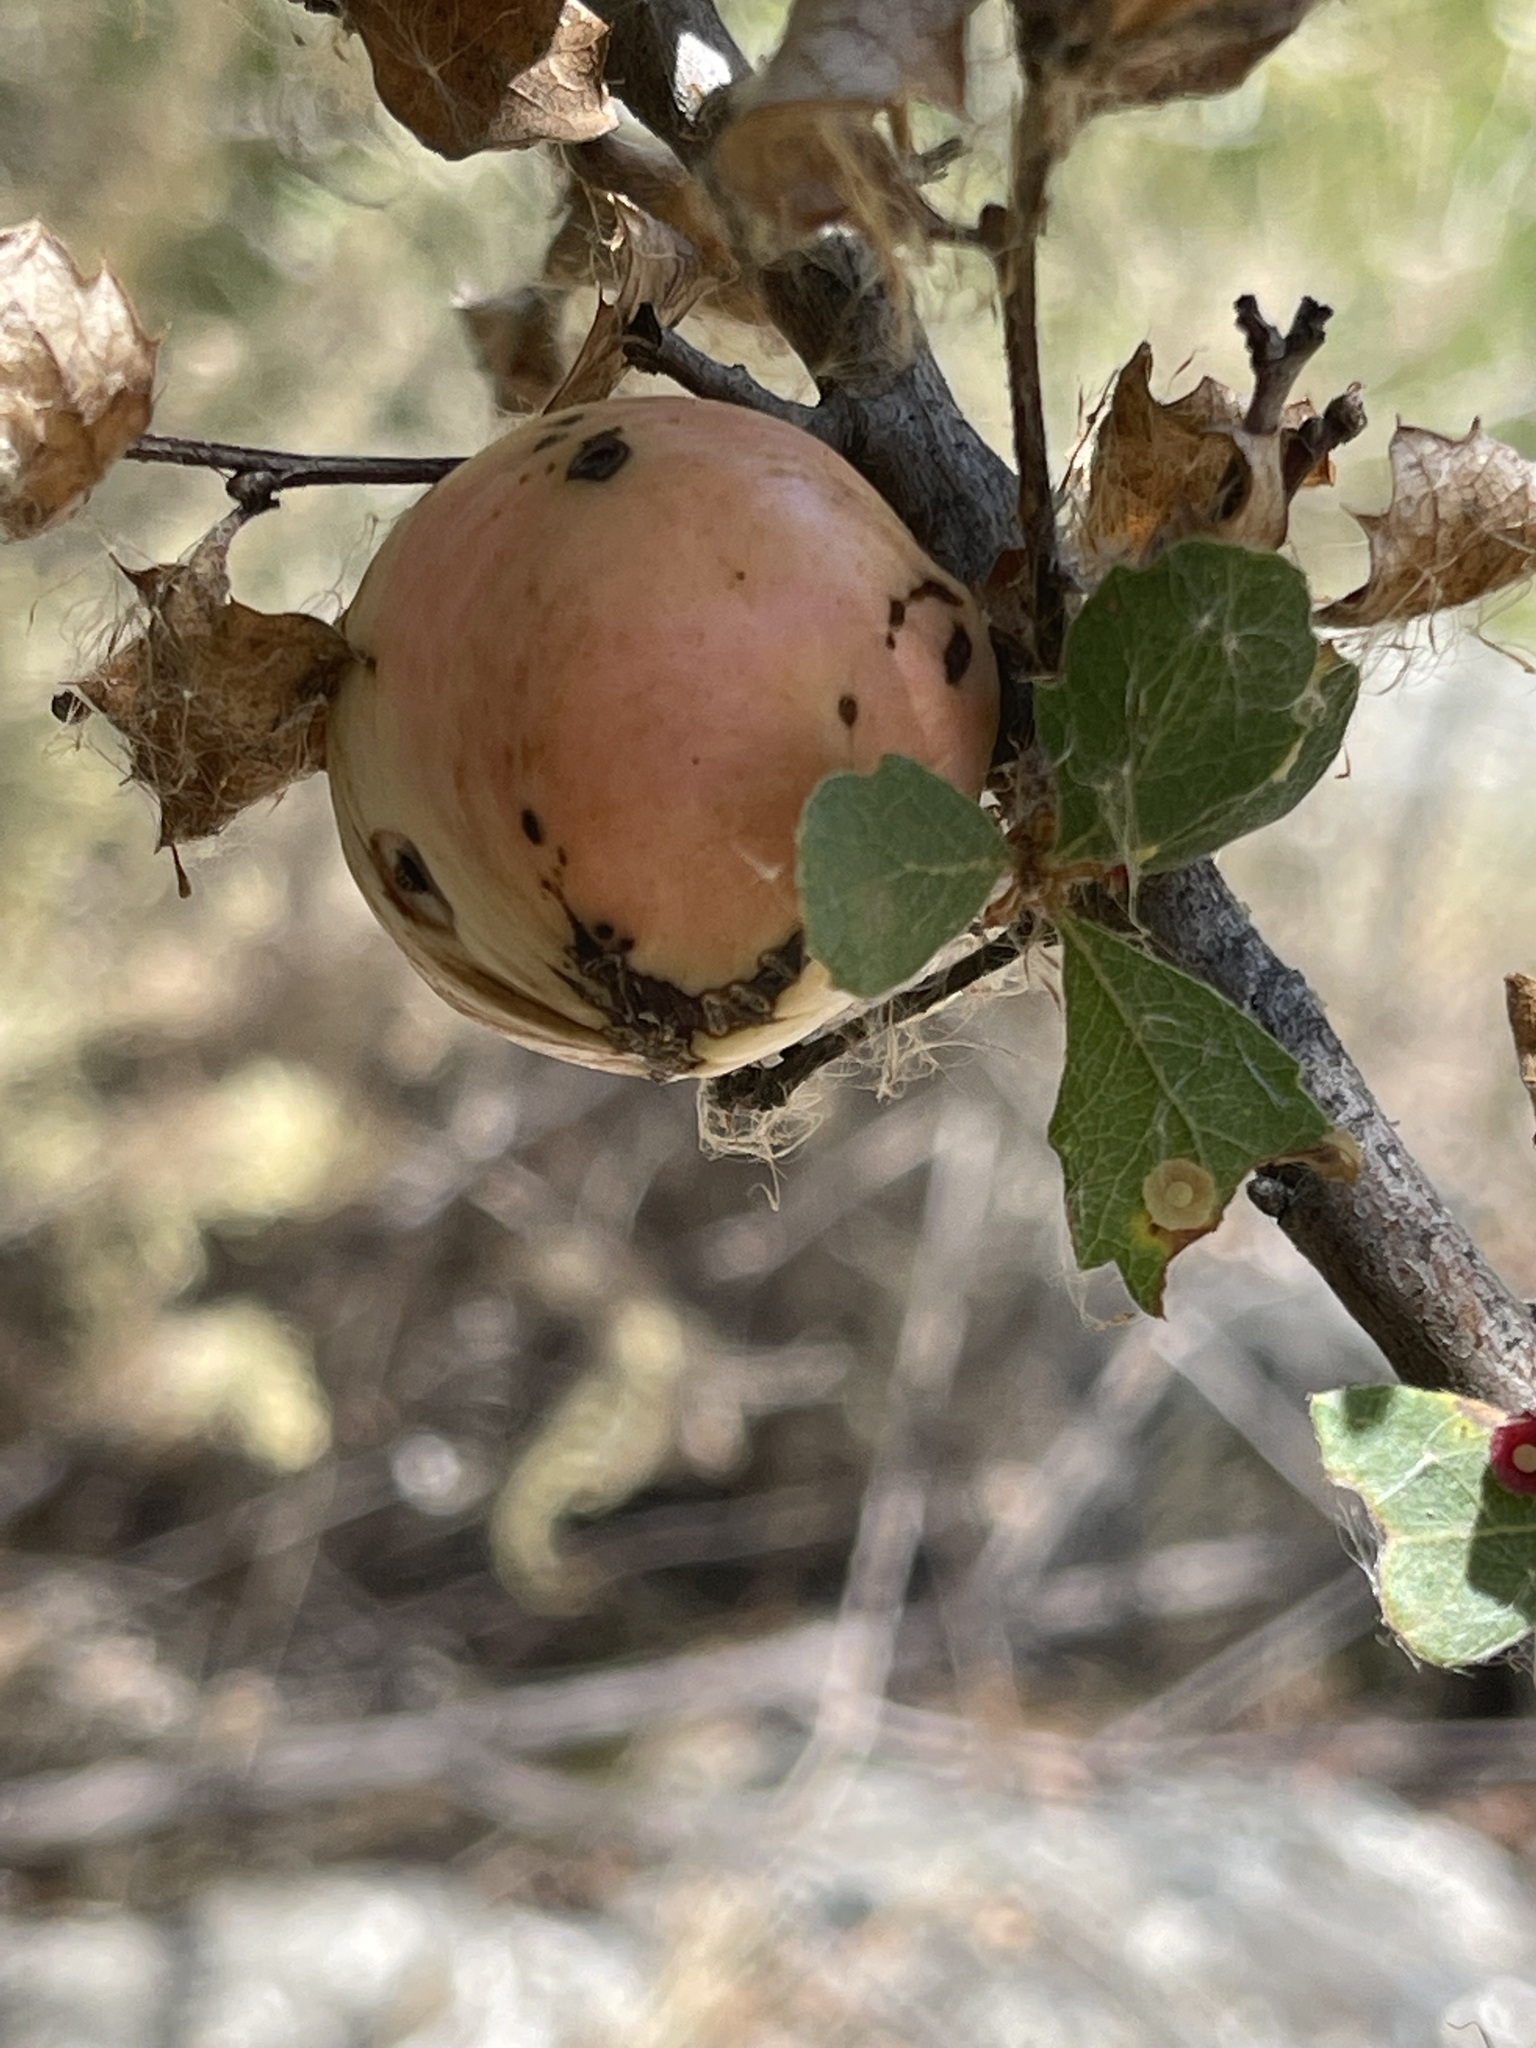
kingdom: Animalia
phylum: Arthropoda
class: Insecta
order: Hymenoptera
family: Cynipidae
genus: Andricus
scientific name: Andricus quercuscalifornicus
